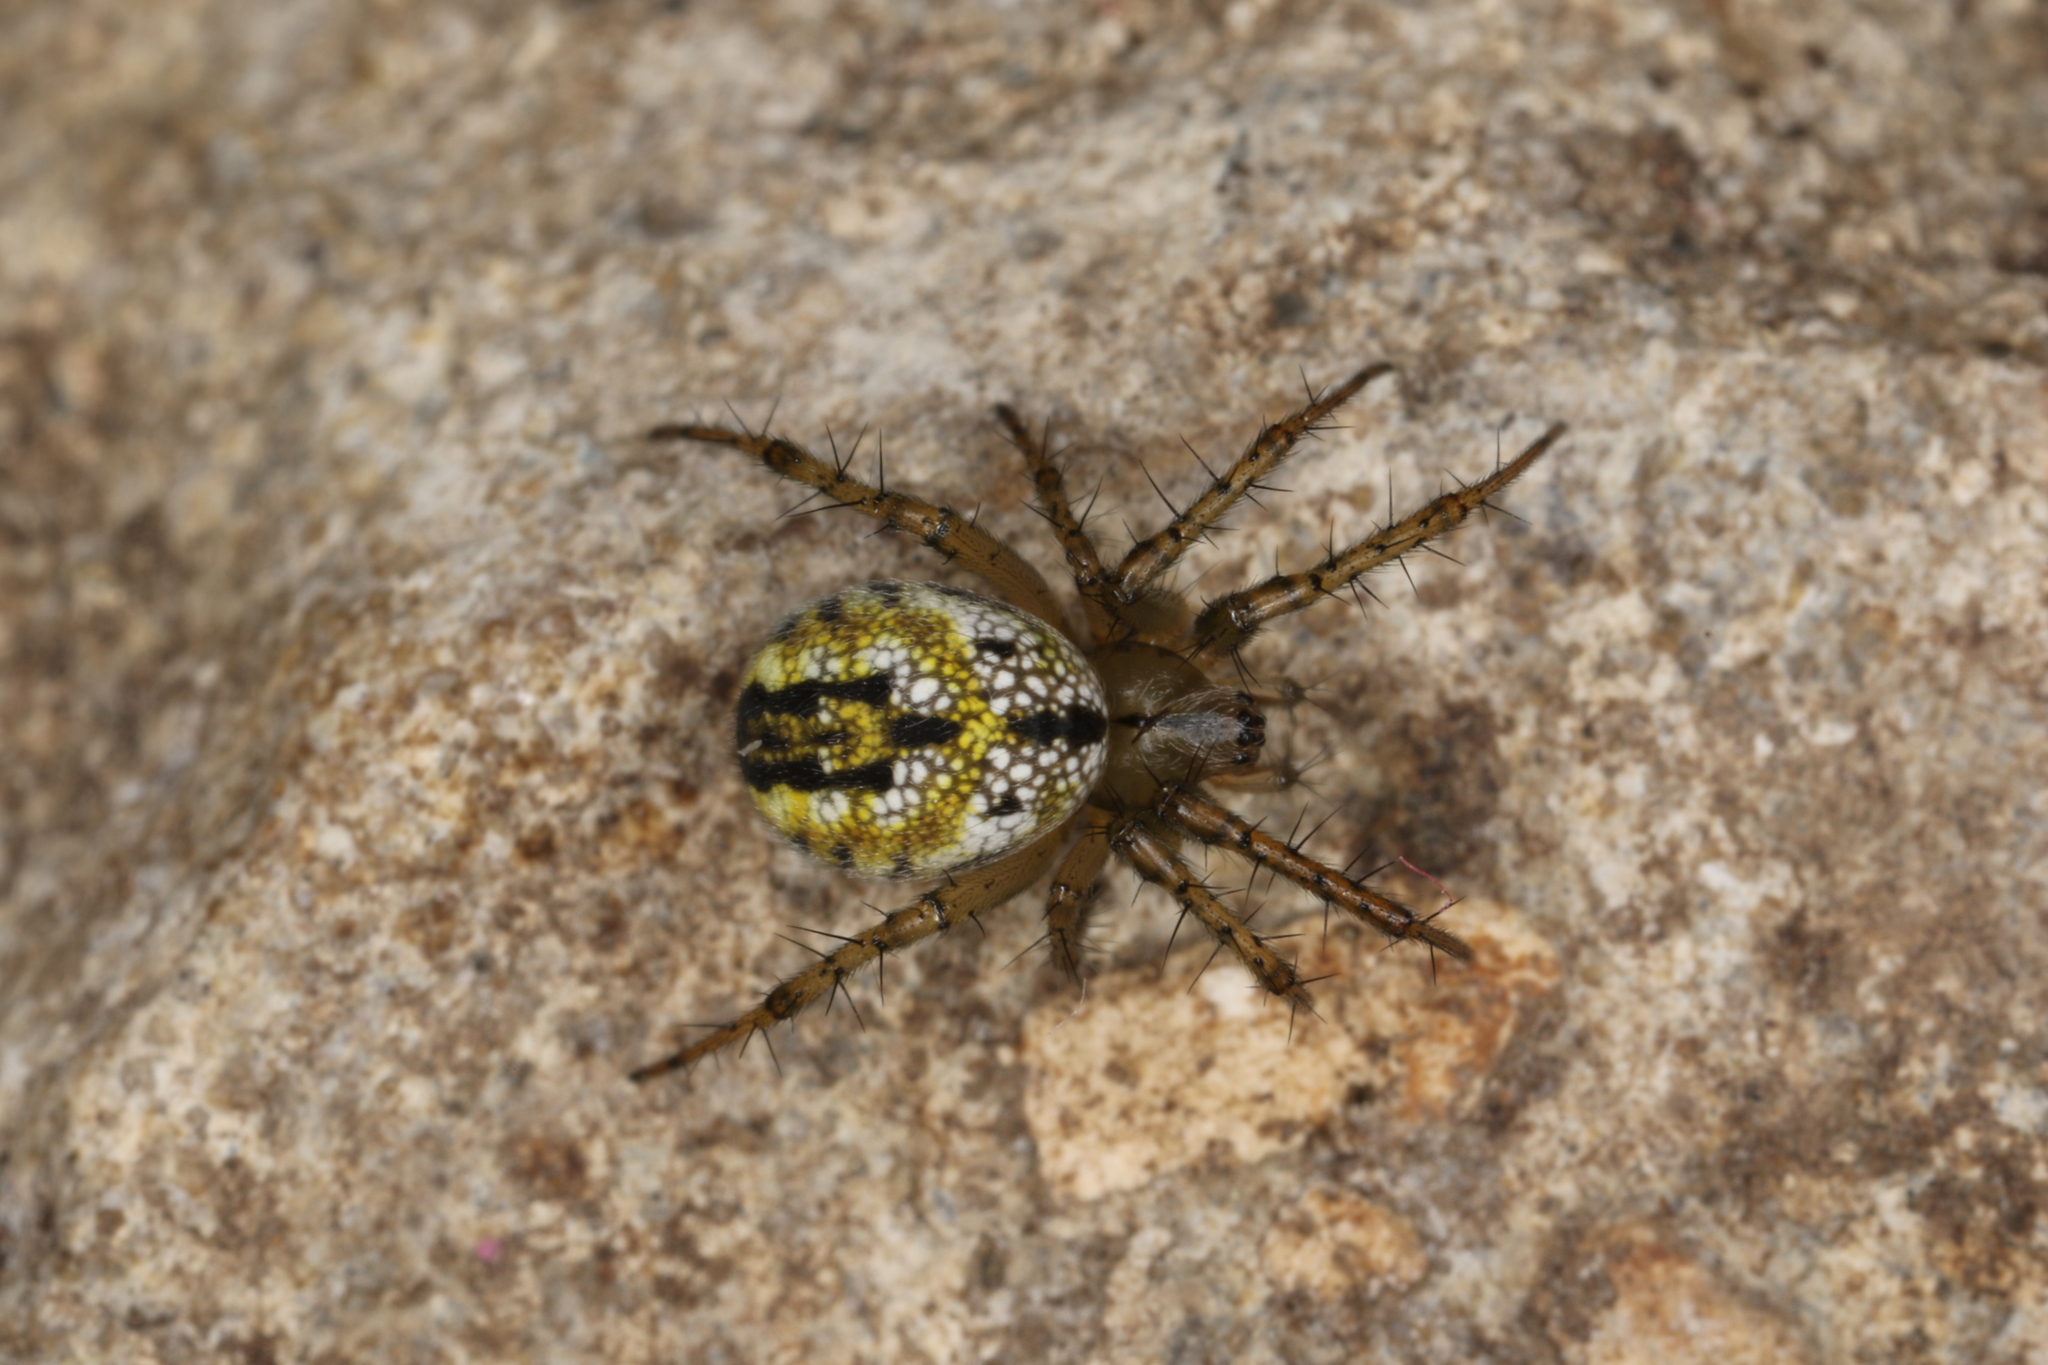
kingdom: Animalia
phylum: Arthropoda
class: Arachnida
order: Araneae
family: Araneidae
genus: Mangora
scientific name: Mangora acalypha
